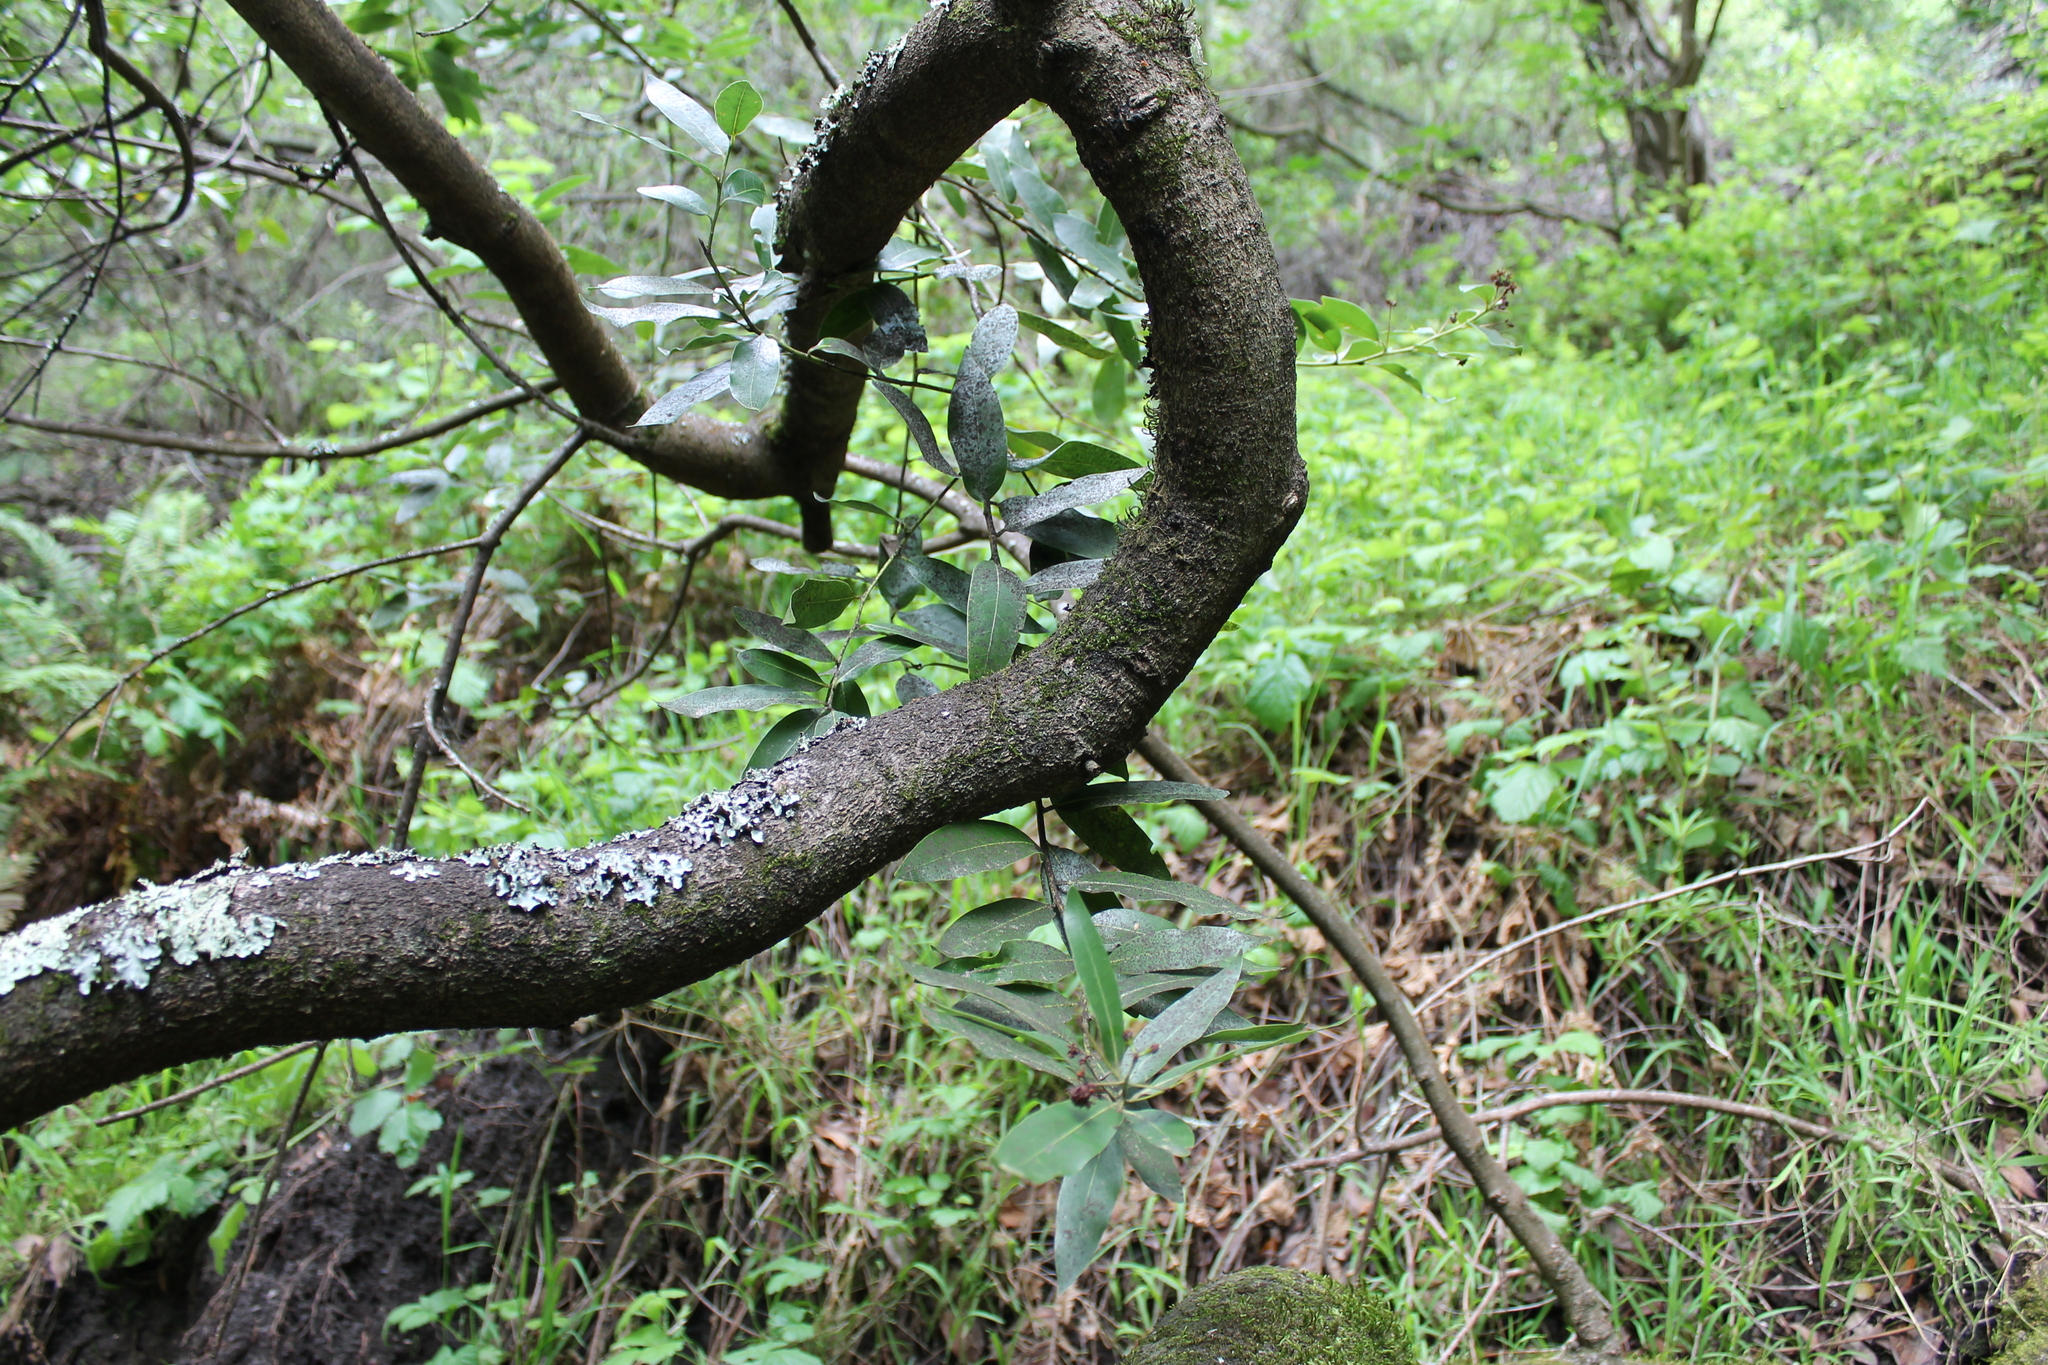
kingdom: Plantae
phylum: Tracheophyta
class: Magnoliopsida
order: Laurales
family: Lauraceae
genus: Umbellularia
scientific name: Umbellularia californica
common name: California bay
